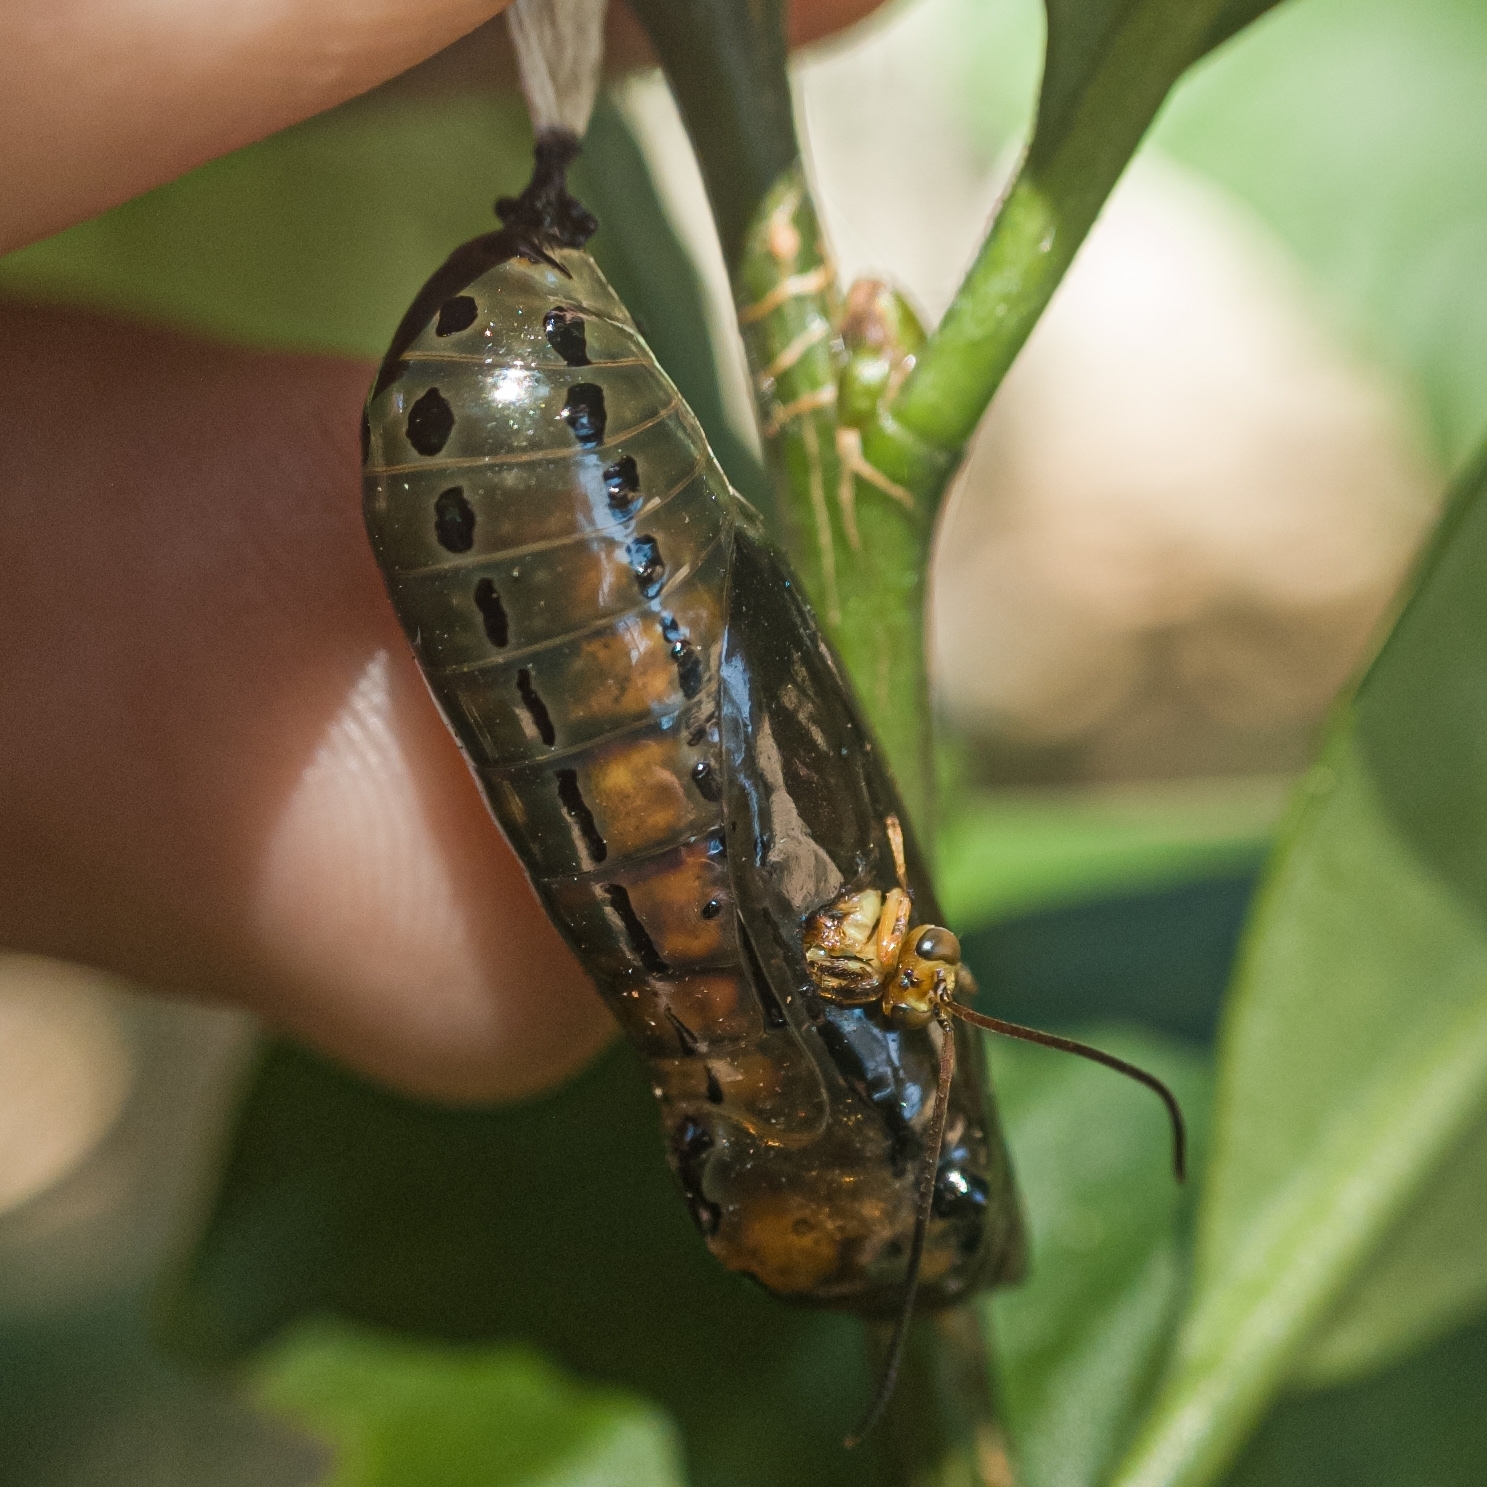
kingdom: Animalia
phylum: Arthropoda
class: Insecta
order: Lepidoptera
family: Nymphalidae
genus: Methona
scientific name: Methona themisto
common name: Themisto amberwing
